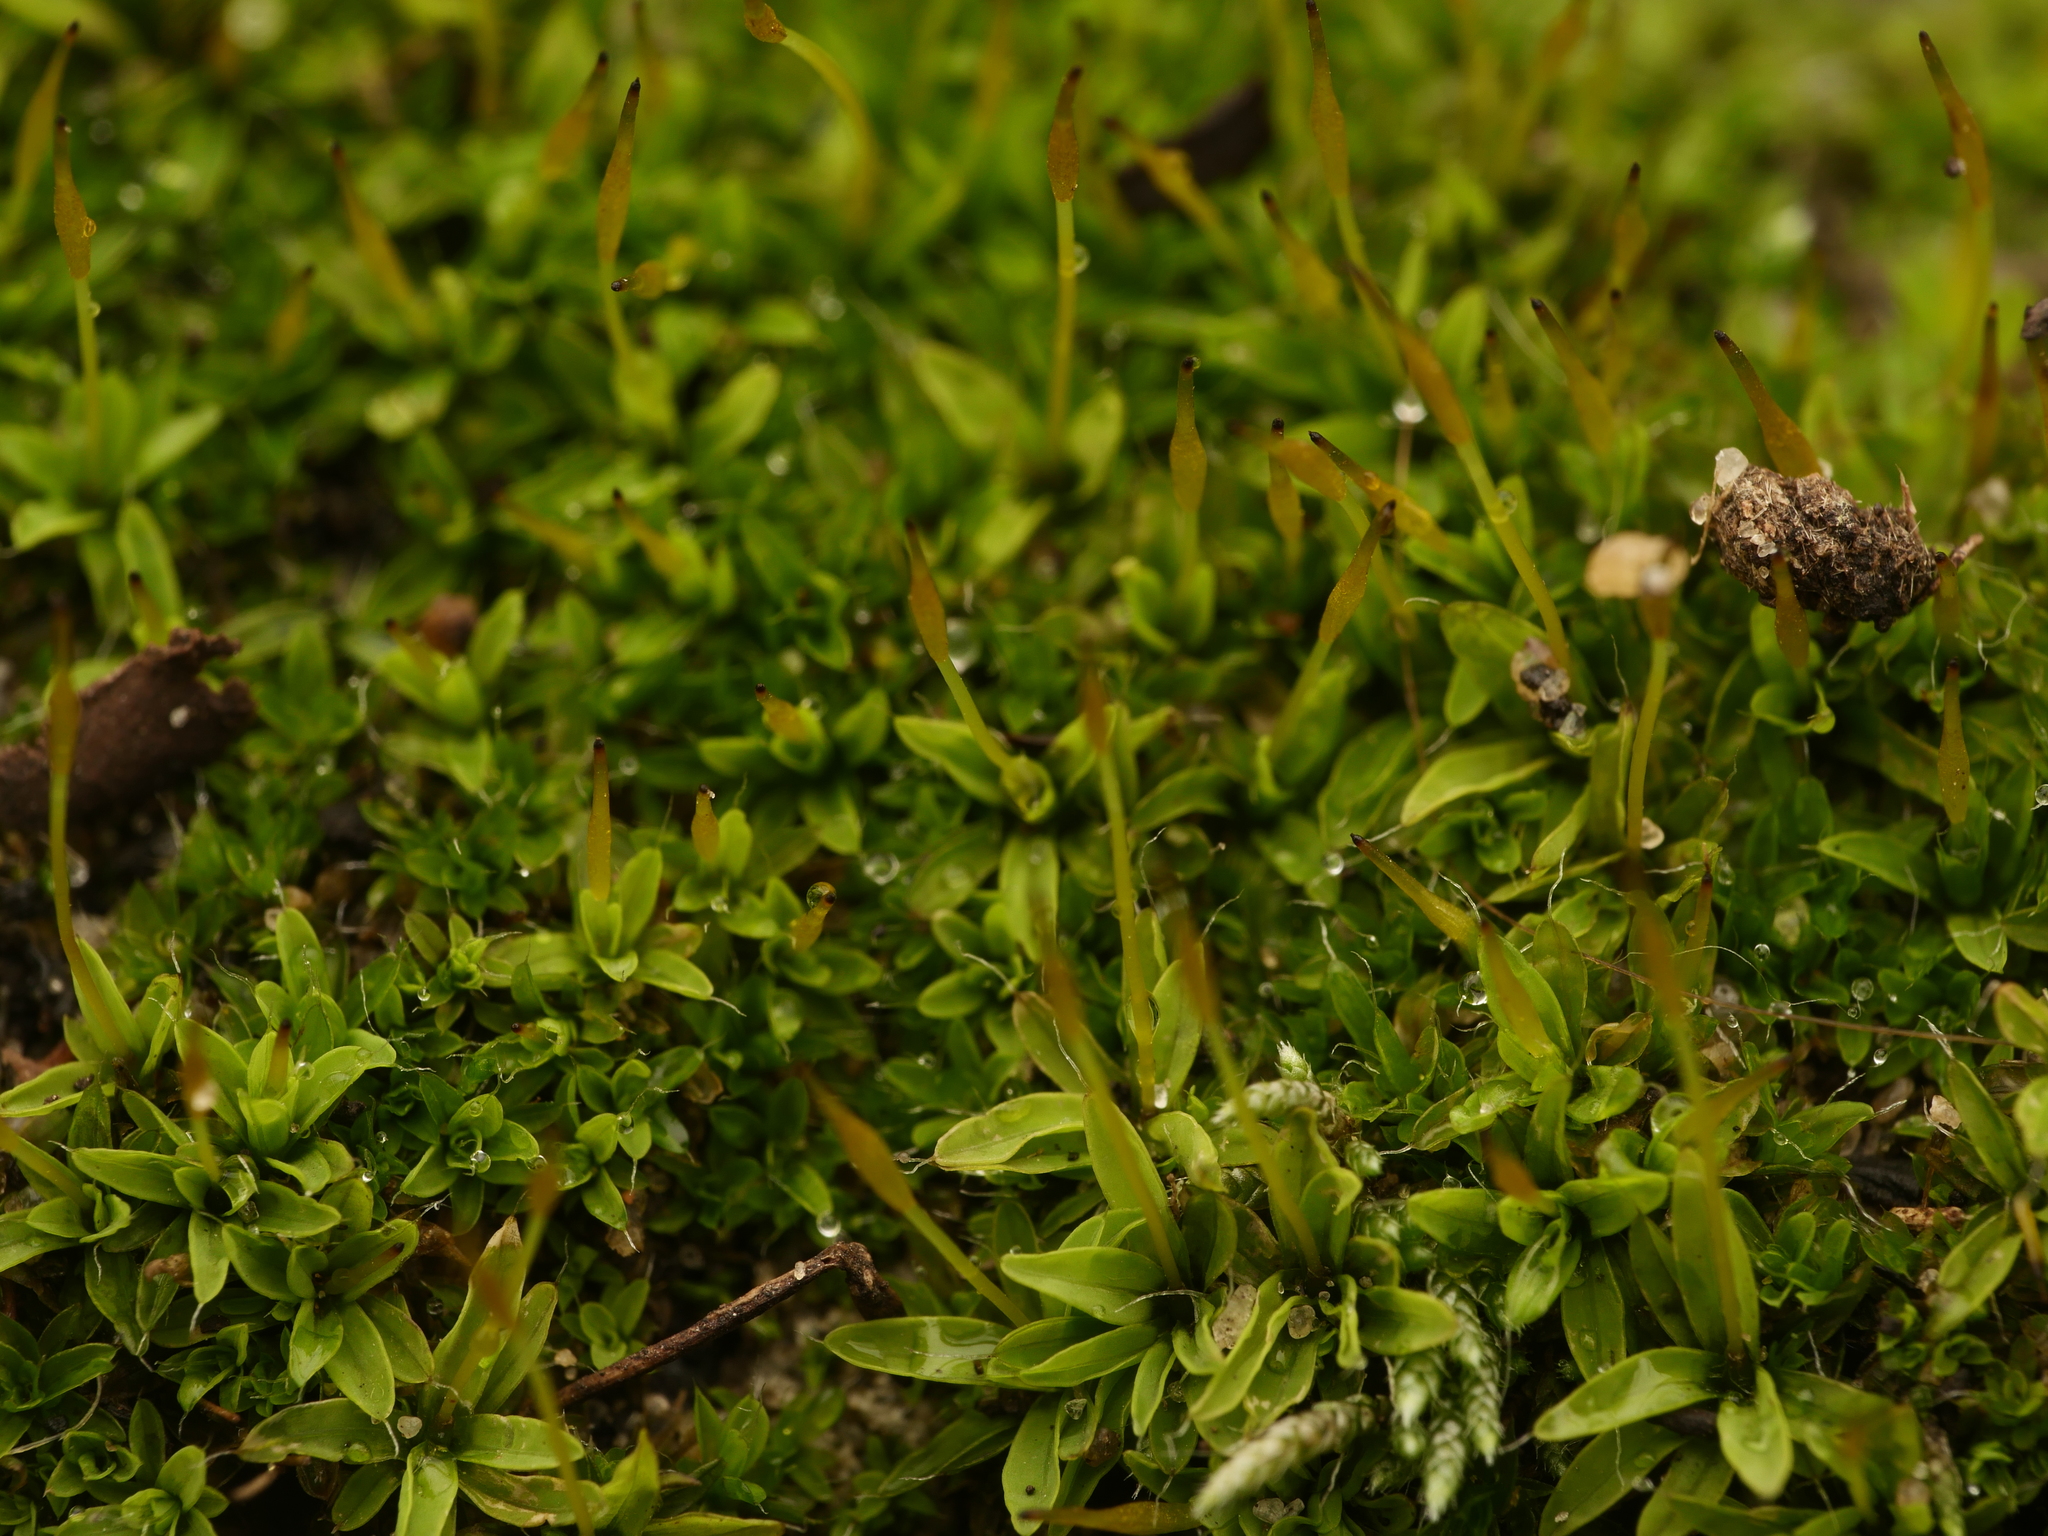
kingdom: Plantae
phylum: Bryophyta
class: Bryopsida
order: Pottiales
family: Pottiaceae
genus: Tortula
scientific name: Tortula muralis
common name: Wall screw-moss
